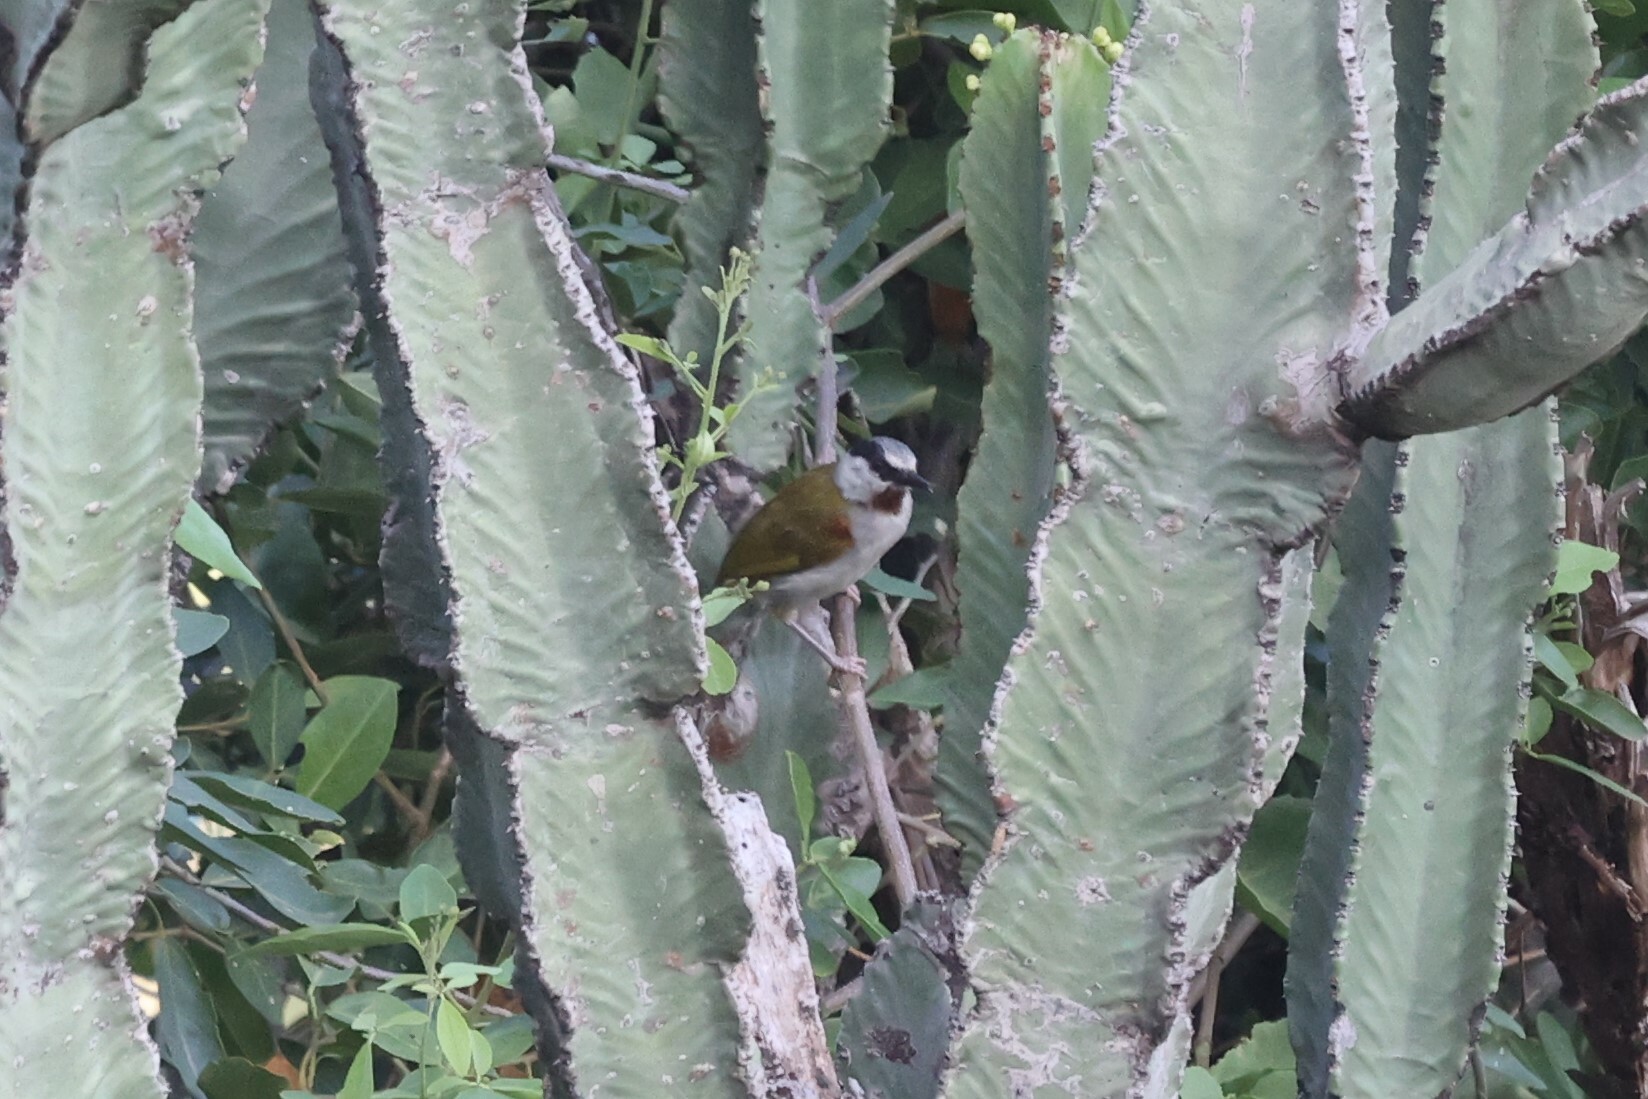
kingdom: Animalia
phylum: Chordata
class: Aves
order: Passeriformes
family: Cisticolidae
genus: Eminia
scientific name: Eminia lepida
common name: Grey-capped warbler
